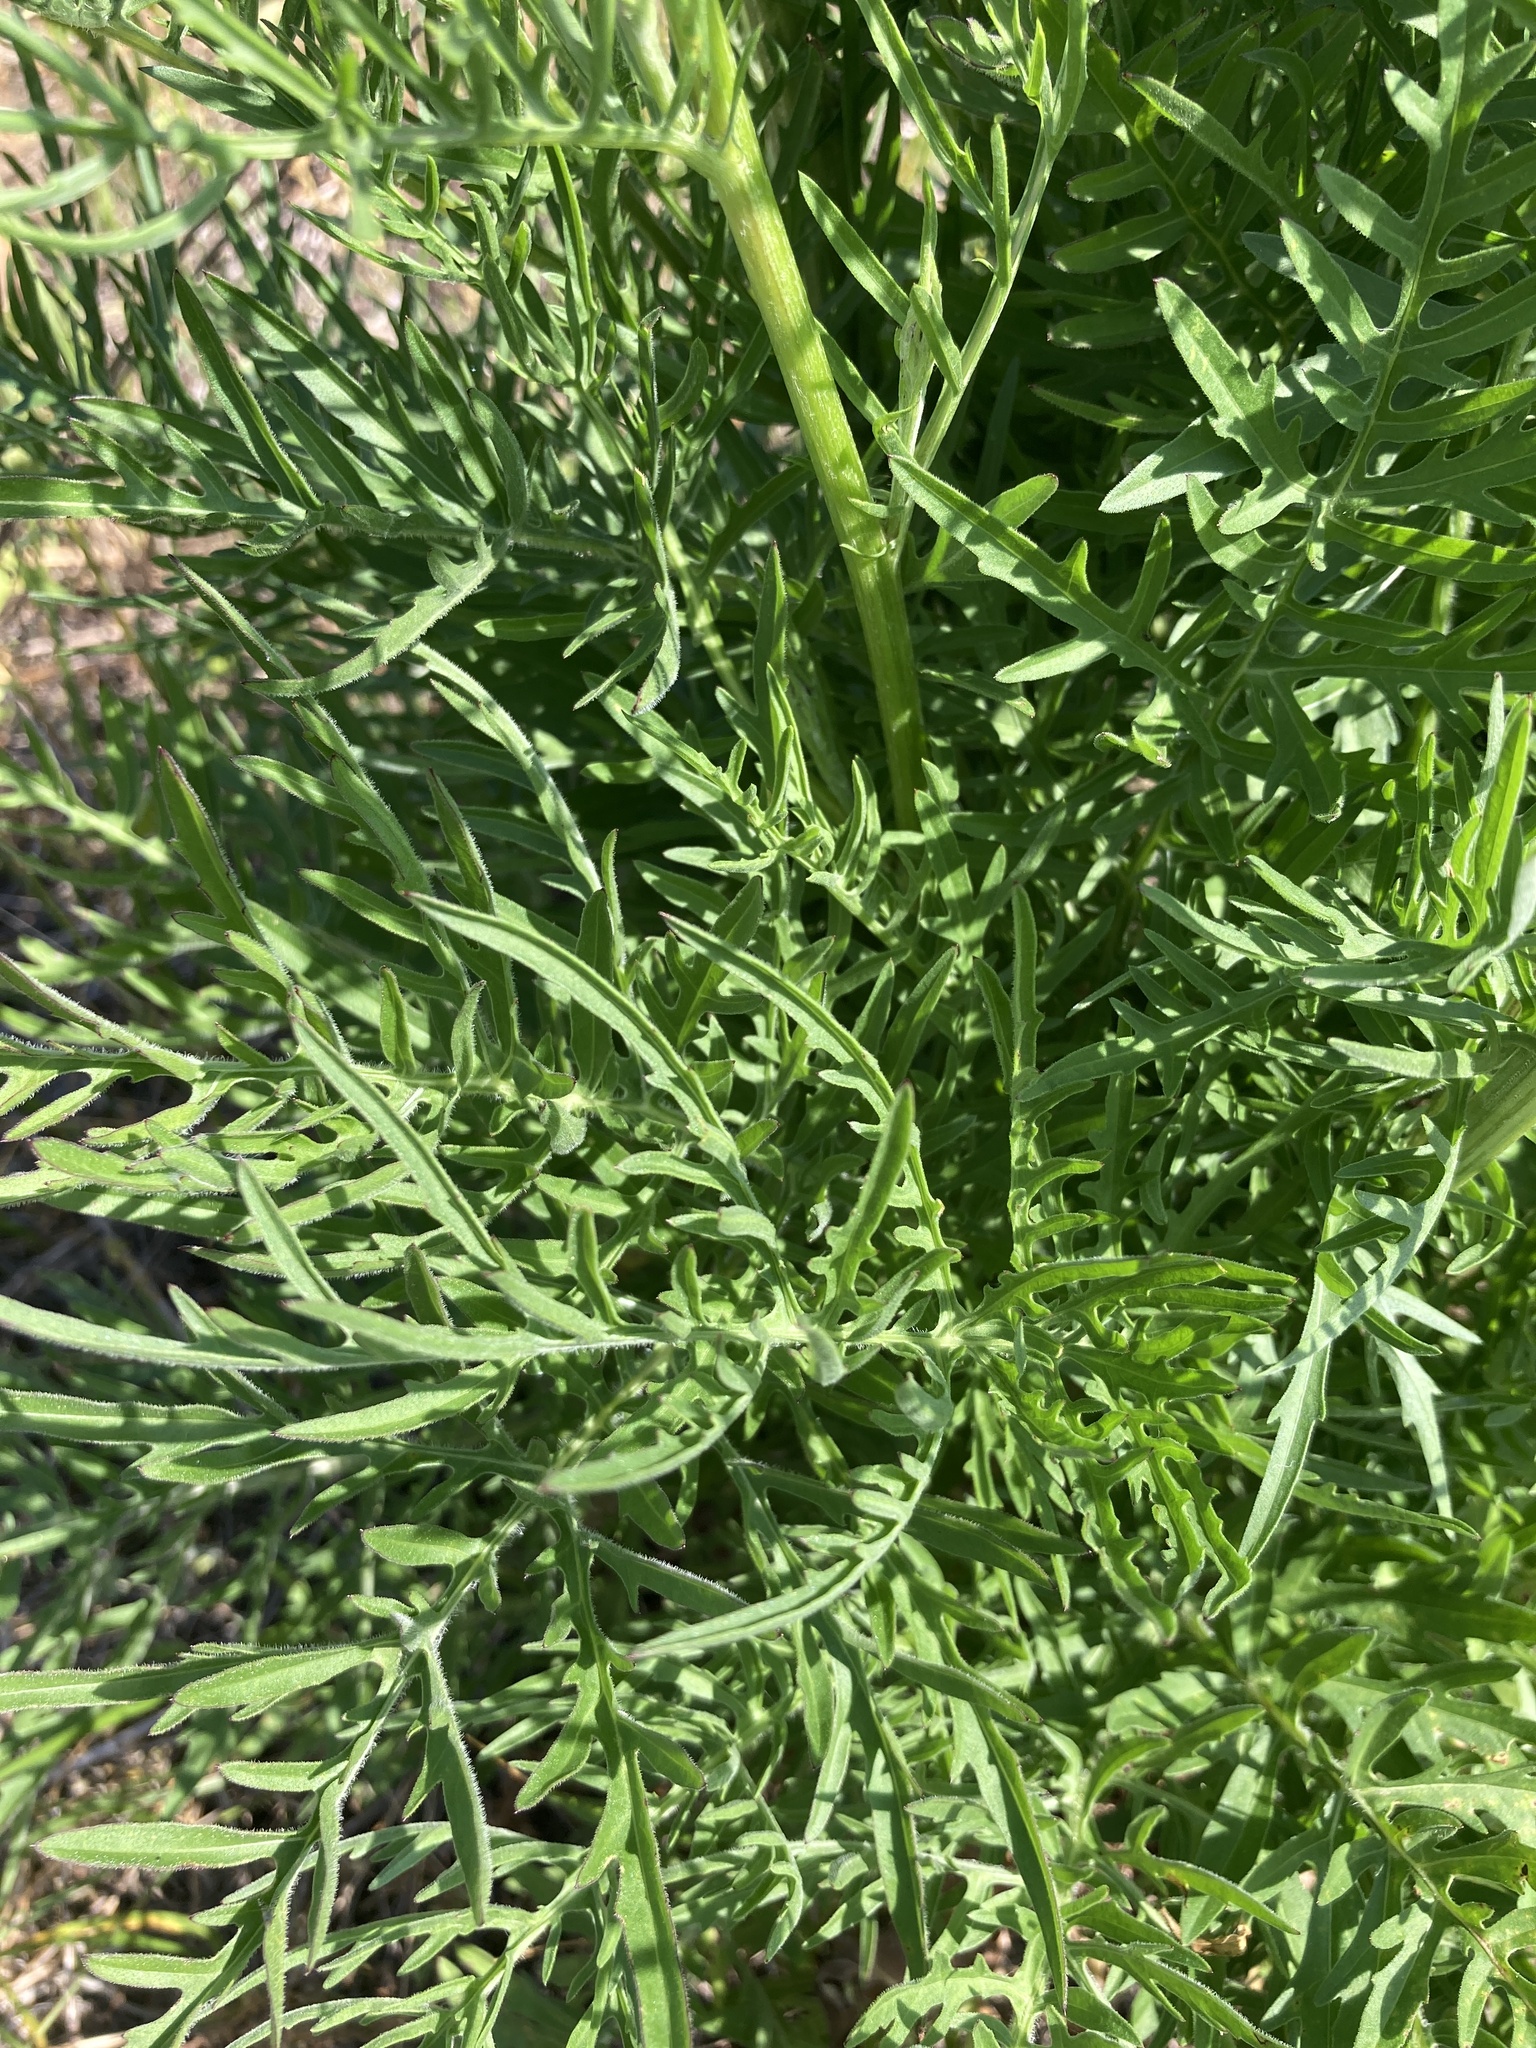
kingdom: Plantae
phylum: Tracheophyta
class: Magnoliopsida
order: Asterales
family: Asteraceae
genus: Centaurea
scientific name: Centaurea scabiosa
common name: Greater knapweed
